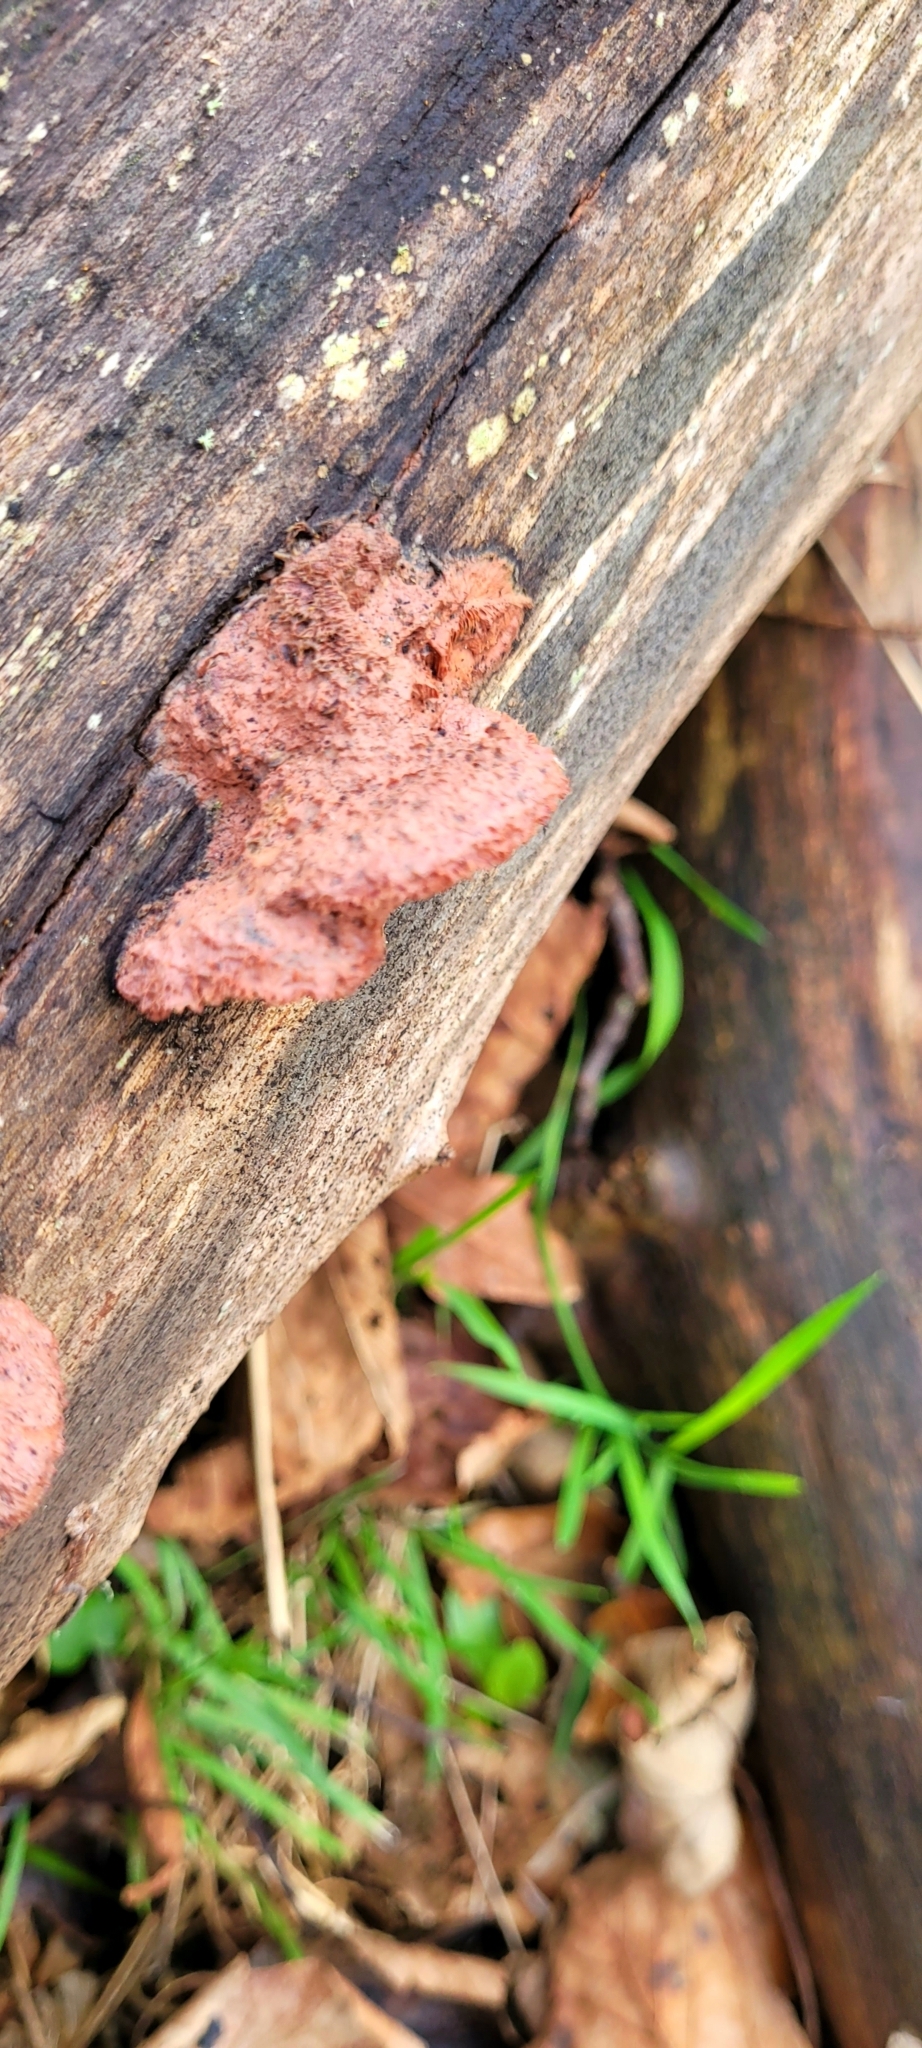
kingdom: Fungi
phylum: Basidiomycota
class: Agaricomycetes
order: Polyporales
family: Phanerochaetaceae
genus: Hapalopilus
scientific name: Hapalopilus rutilans
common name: Tender nesting polypore
